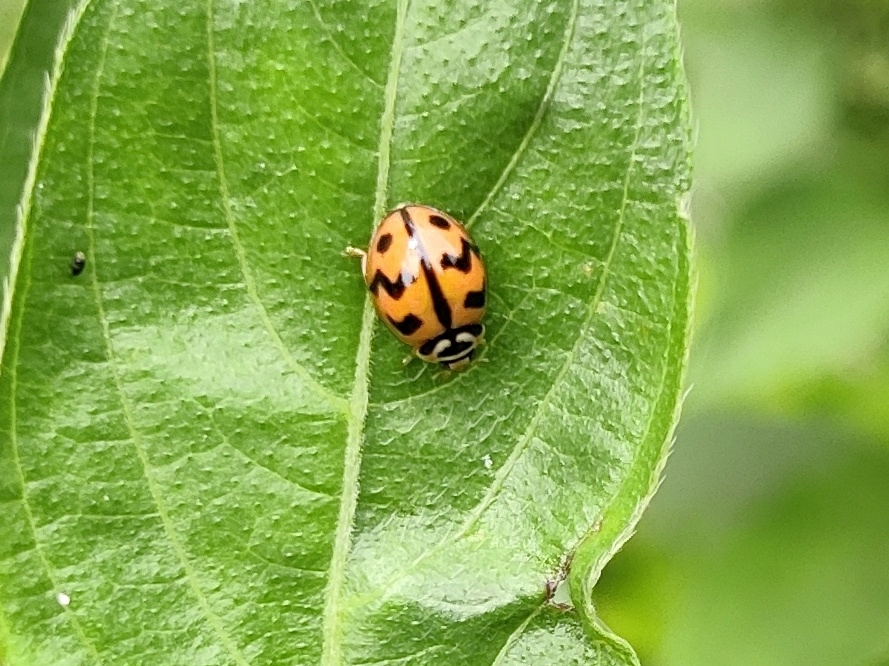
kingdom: Animalia
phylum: Arthropoda
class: Insecta
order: Coleoptera
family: Coccinellidae
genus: Cheilomenes
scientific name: Cheilomenes sexmaculata
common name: Ladybird beetle
